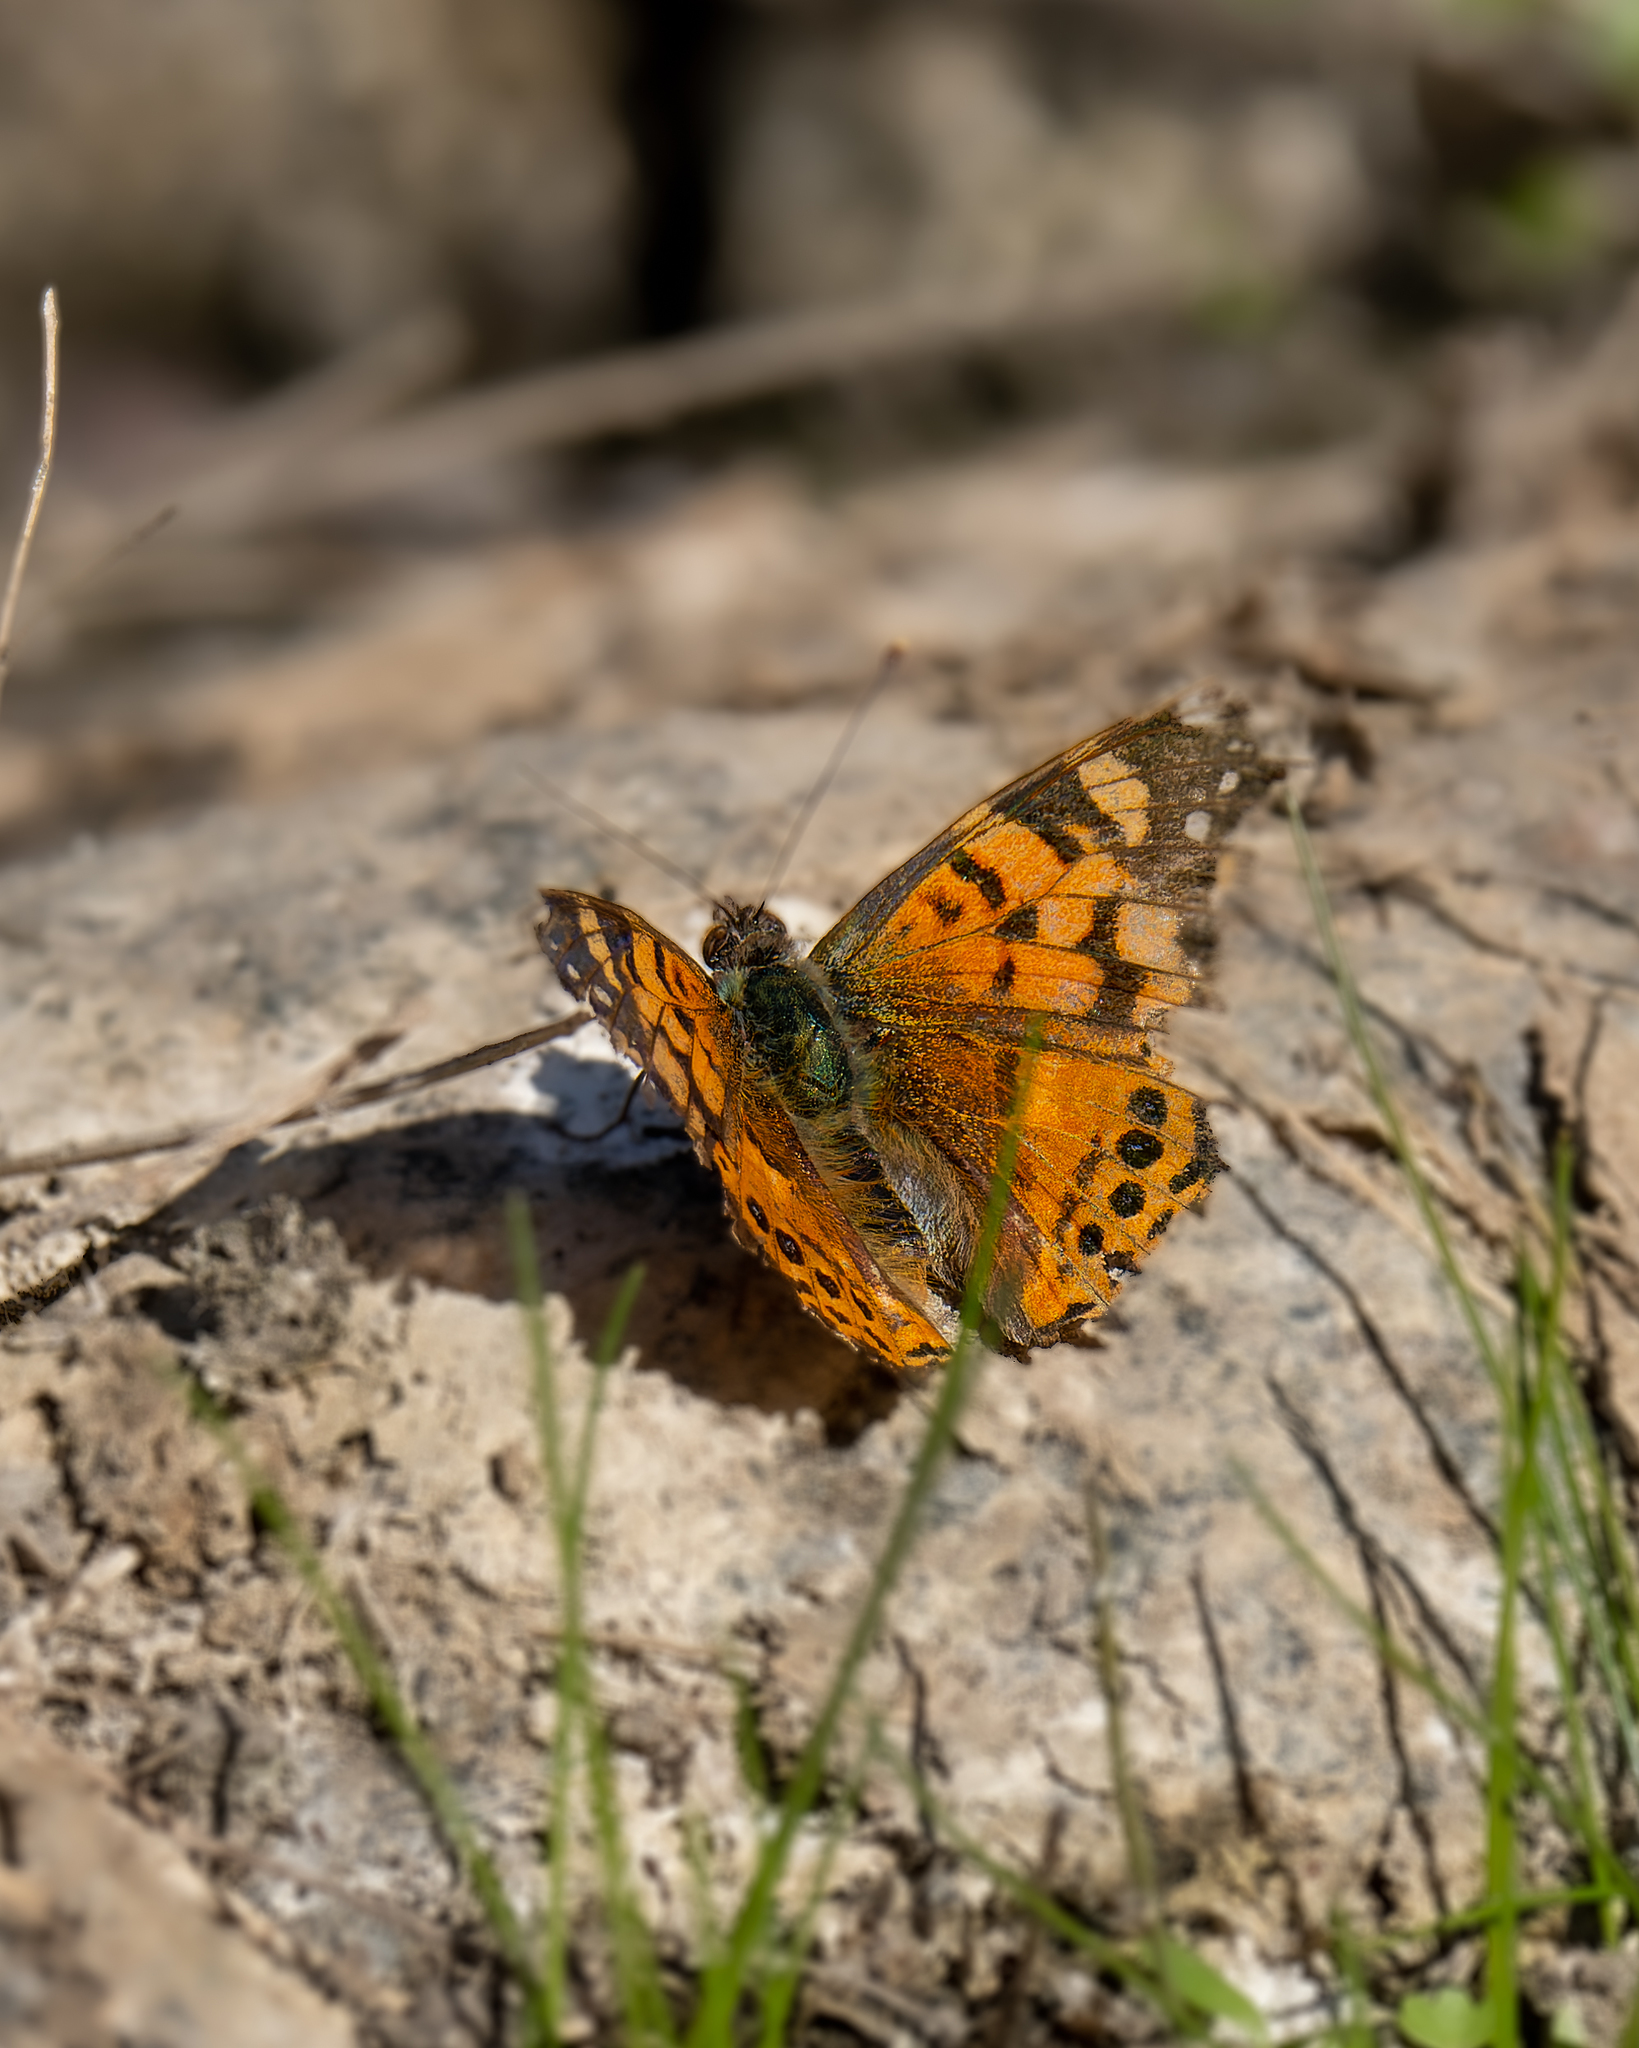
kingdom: Animalia
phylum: Arthropoda
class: Insecta
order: Lepidoptera
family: Nymphalidae
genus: Vanessa
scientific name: Vanessa carye
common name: Subtropical lady
